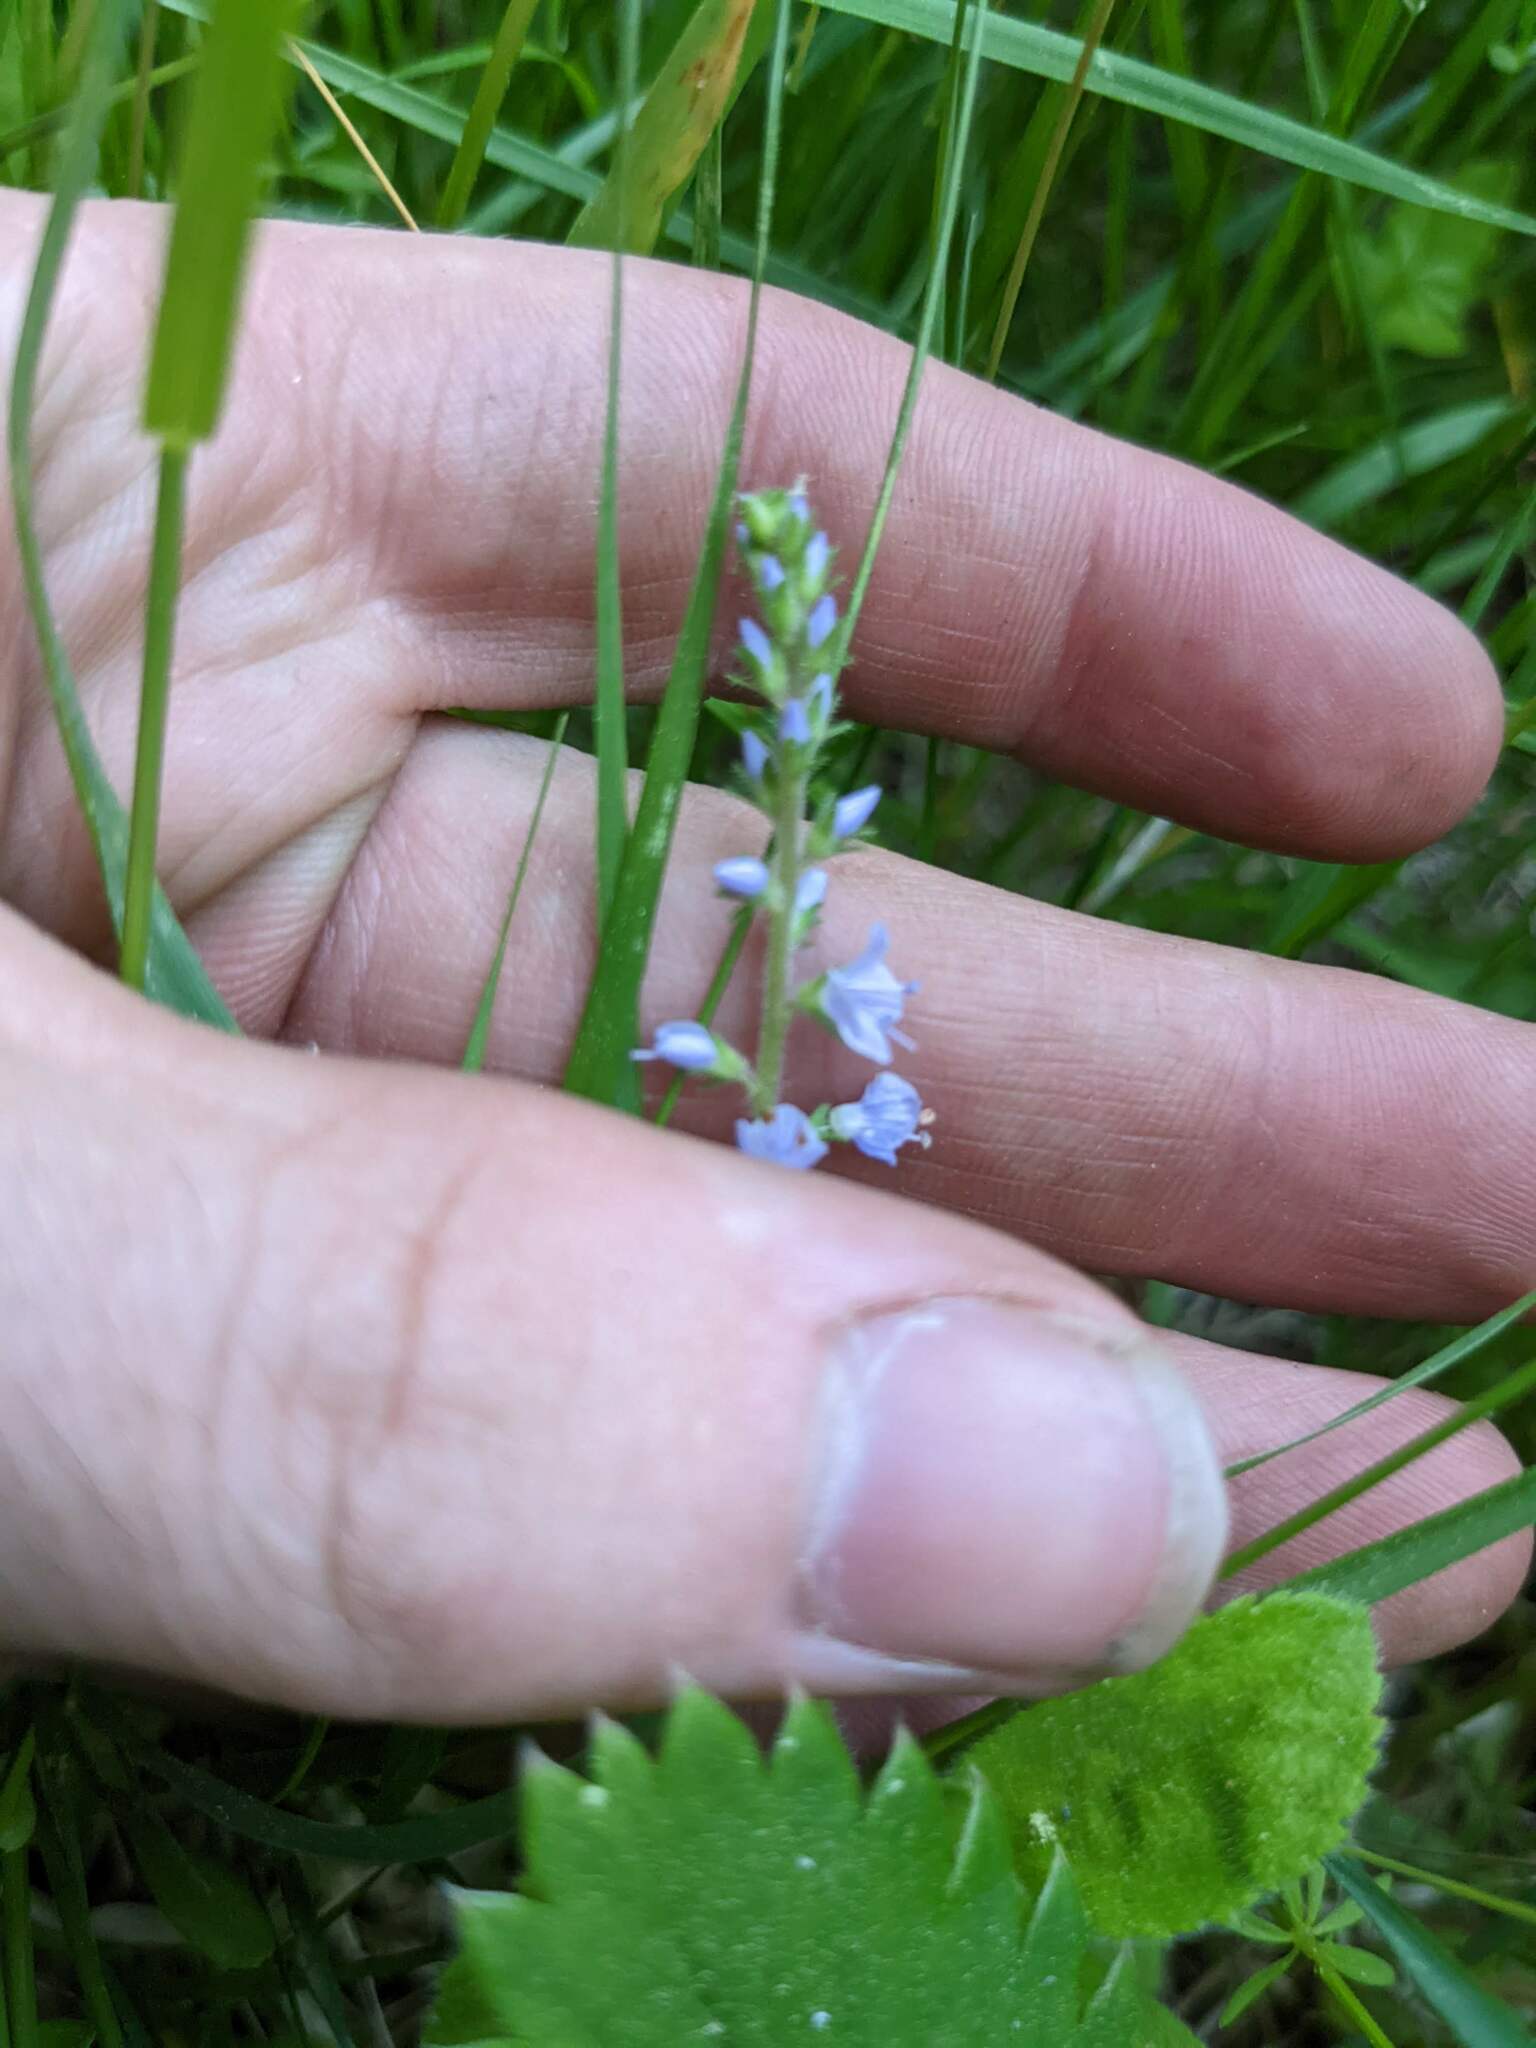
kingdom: Plantae
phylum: Tracheophyta
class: Magnoliopsida
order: Lamiales
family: Plantaginaceae
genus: Veronica
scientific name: Veronica officinalis
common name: Common speedwell
